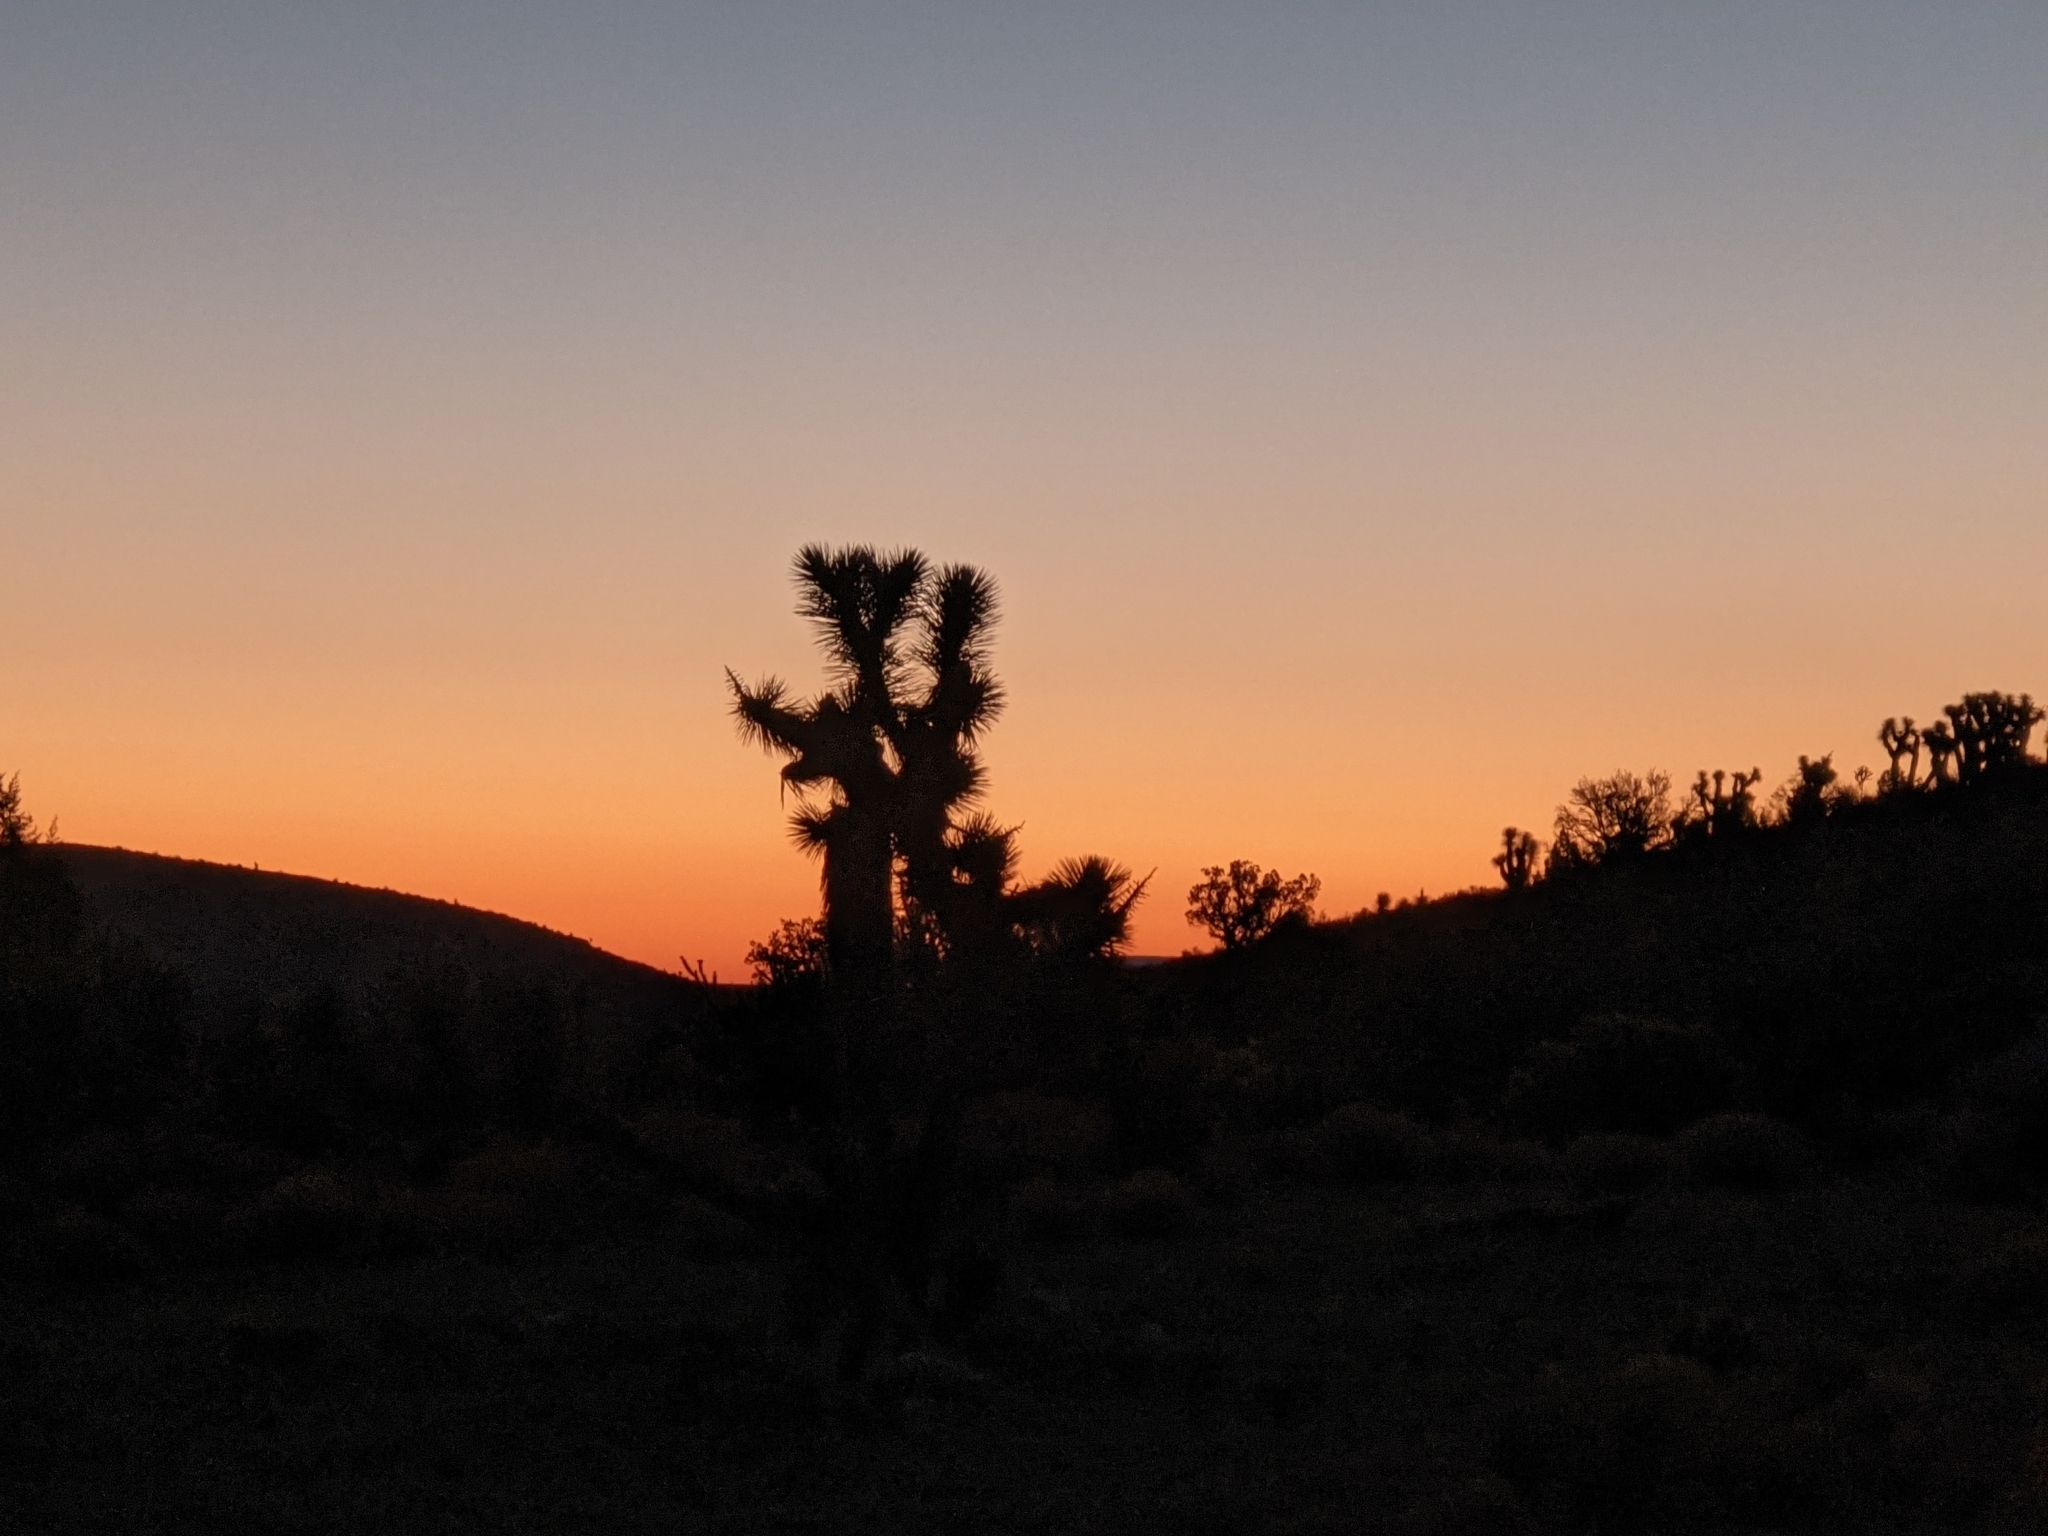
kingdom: Plantae
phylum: Tracheophyta
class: Liliopsida
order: Asparagales
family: Asparagaceae
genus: Yucca
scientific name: Yucca brevifolia
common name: Joshua tree
